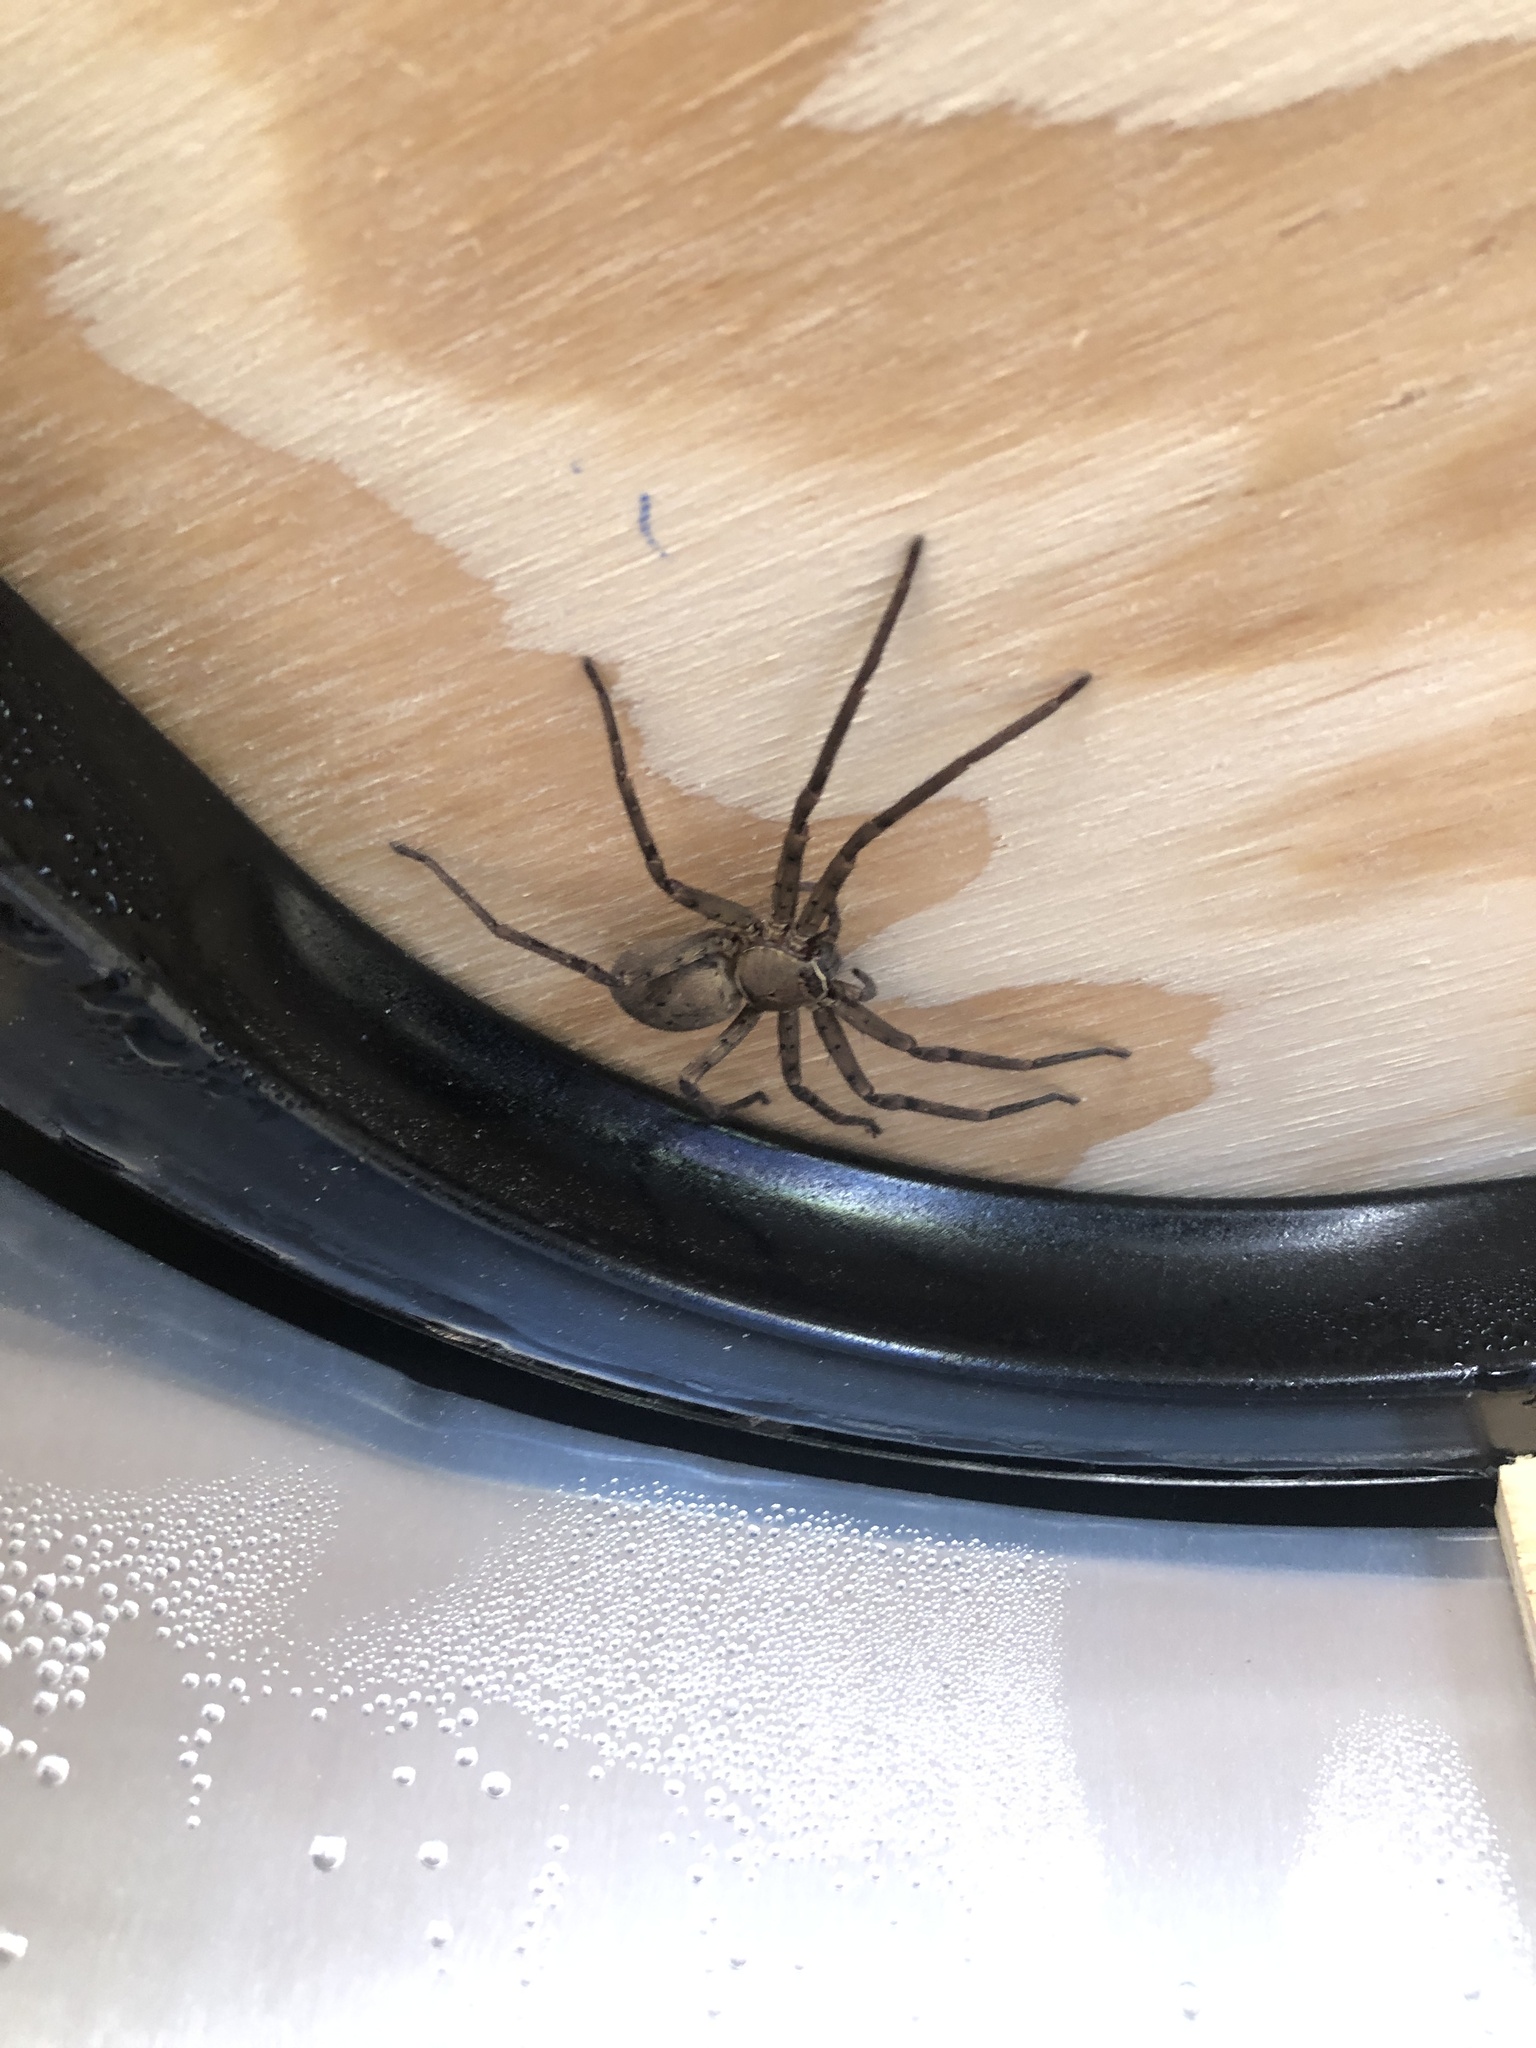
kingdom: Animalia
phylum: Arthropoda
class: Arachnida
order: Araneae
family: Sparassidae
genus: Heteropoda
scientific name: Heteropoda venatoria
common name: Huntsman spider
